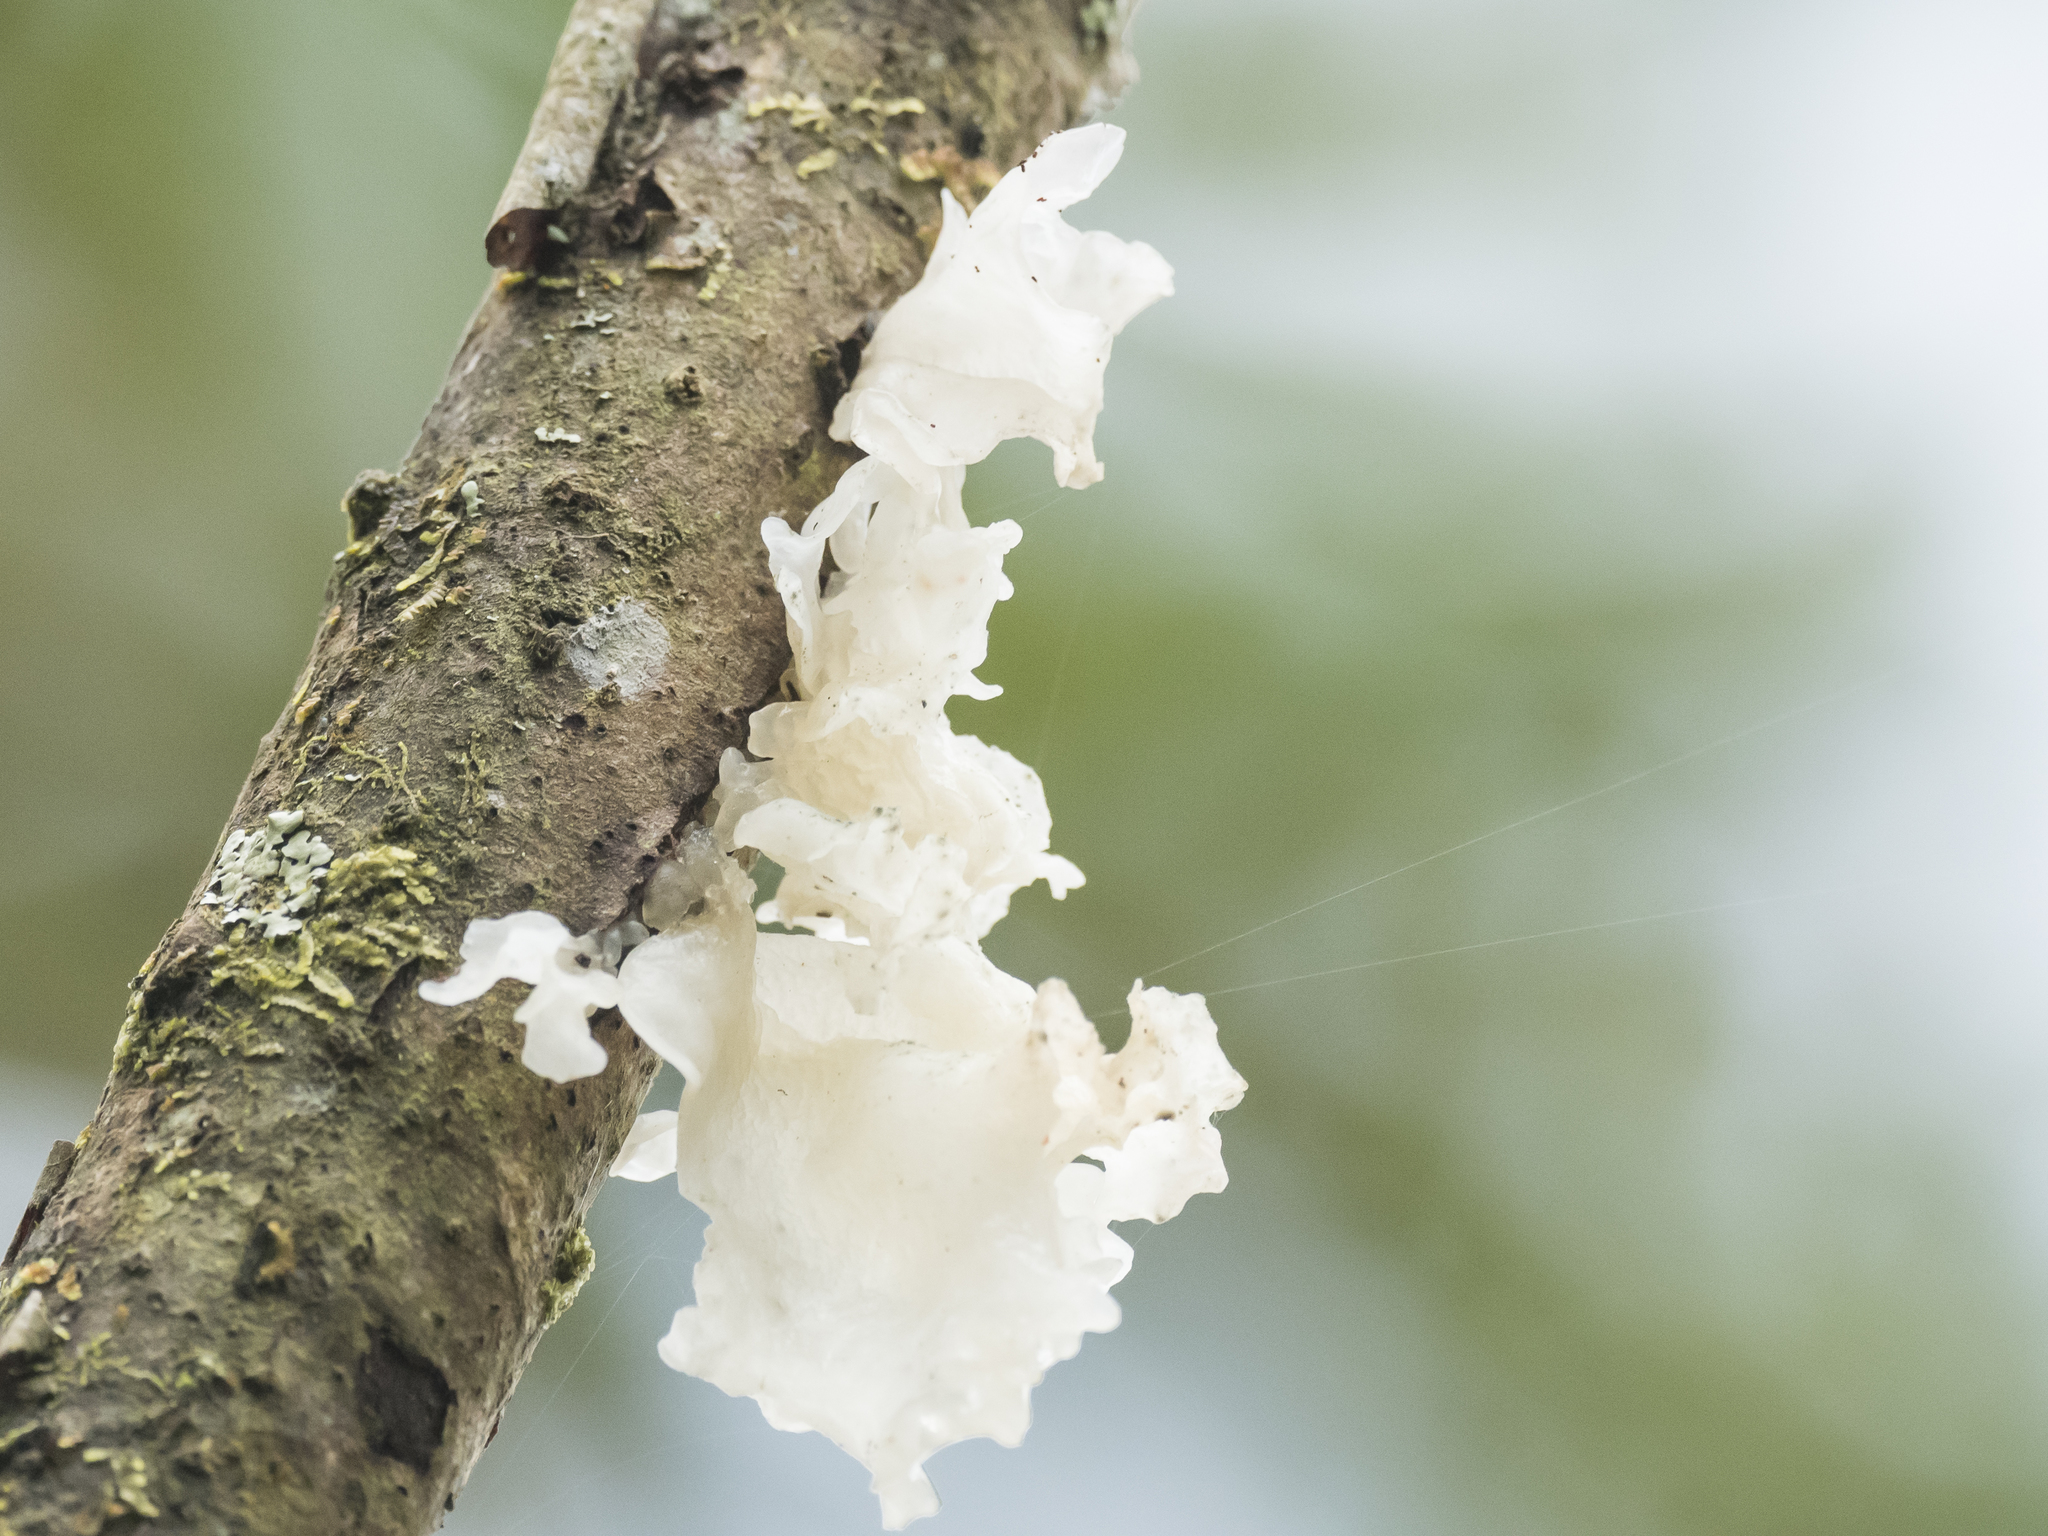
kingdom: Fungi
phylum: Basidiomycota
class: Tremellomycetes
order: Tremellales
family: Tremellaceae
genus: Tremella
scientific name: Tremella fuciformis
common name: Snow fungus
